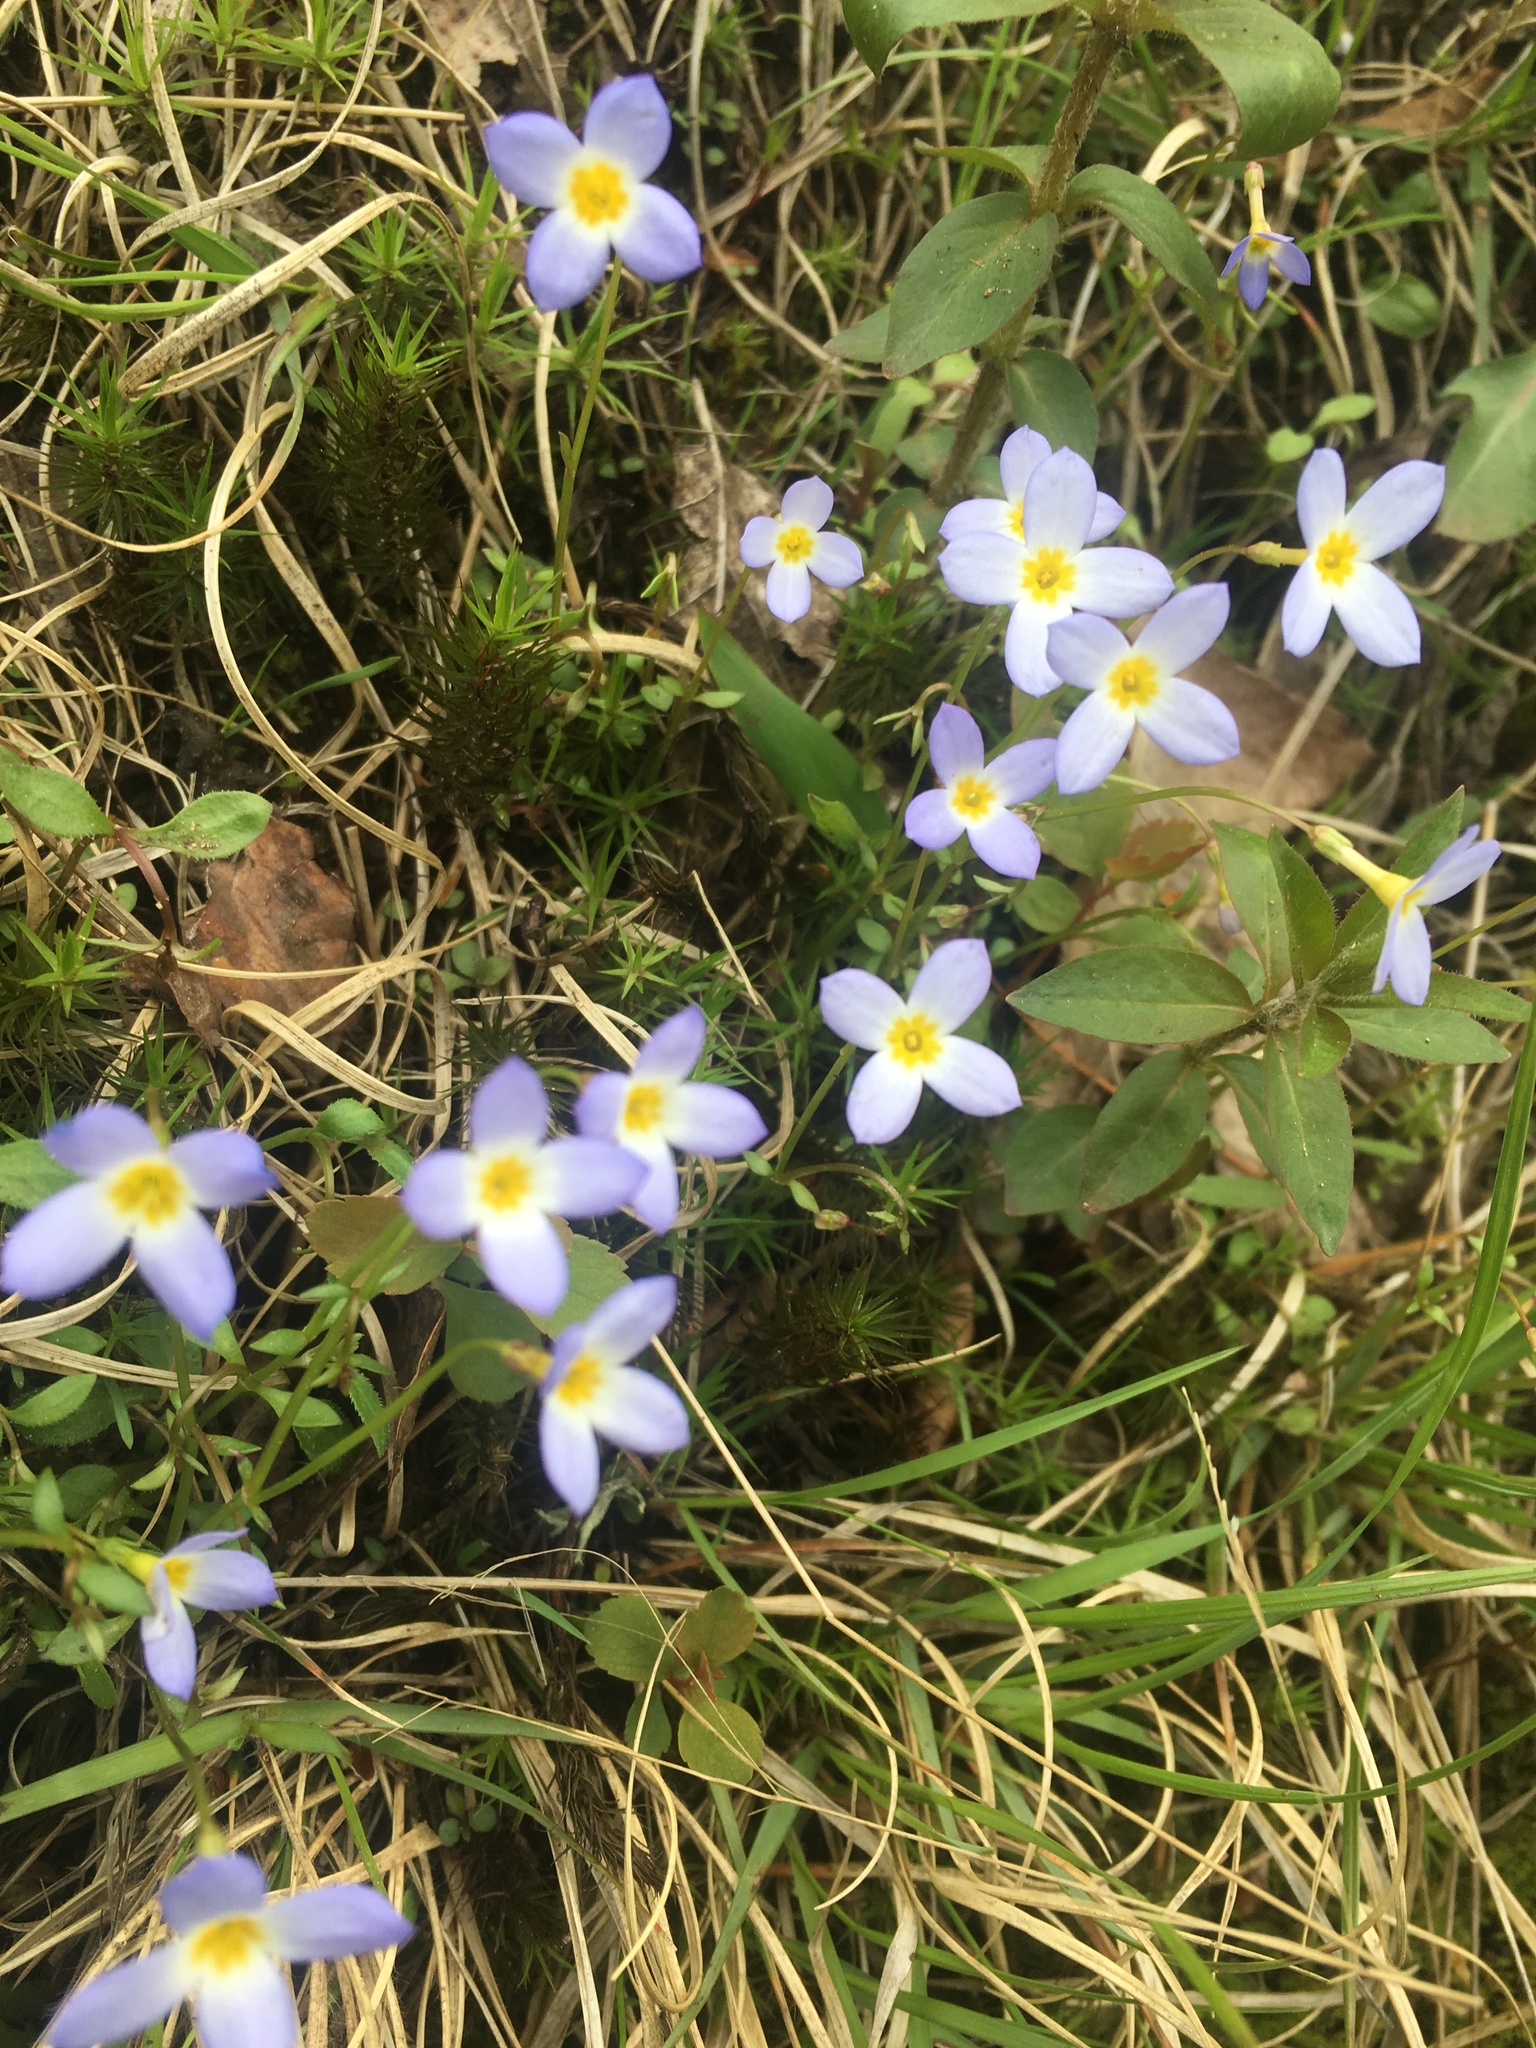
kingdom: Plantae
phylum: Tracheophyta
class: Magnoliopsida
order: Gentianales
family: Rubiaceae
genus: Houstonia
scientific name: Houstonia caerulea
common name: Bluets
